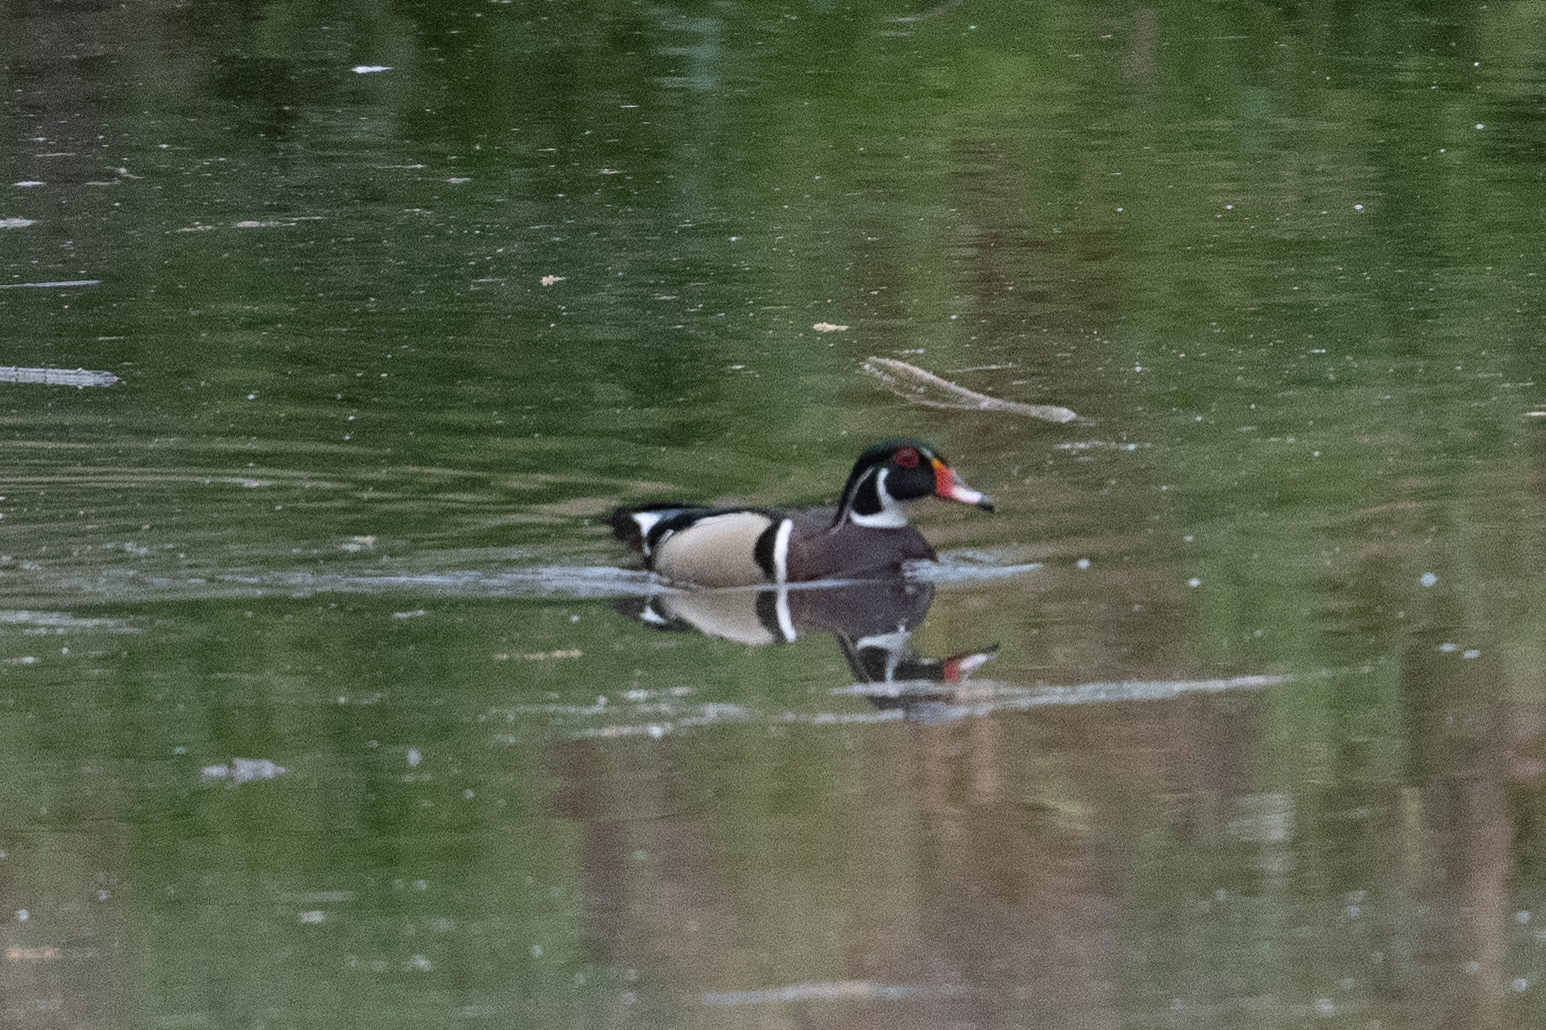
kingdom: Animalia
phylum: Chordata
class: Aves
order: Anseriformes
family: Anatidae
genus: Aix
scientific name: Aix sponsa
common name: Wood duck
